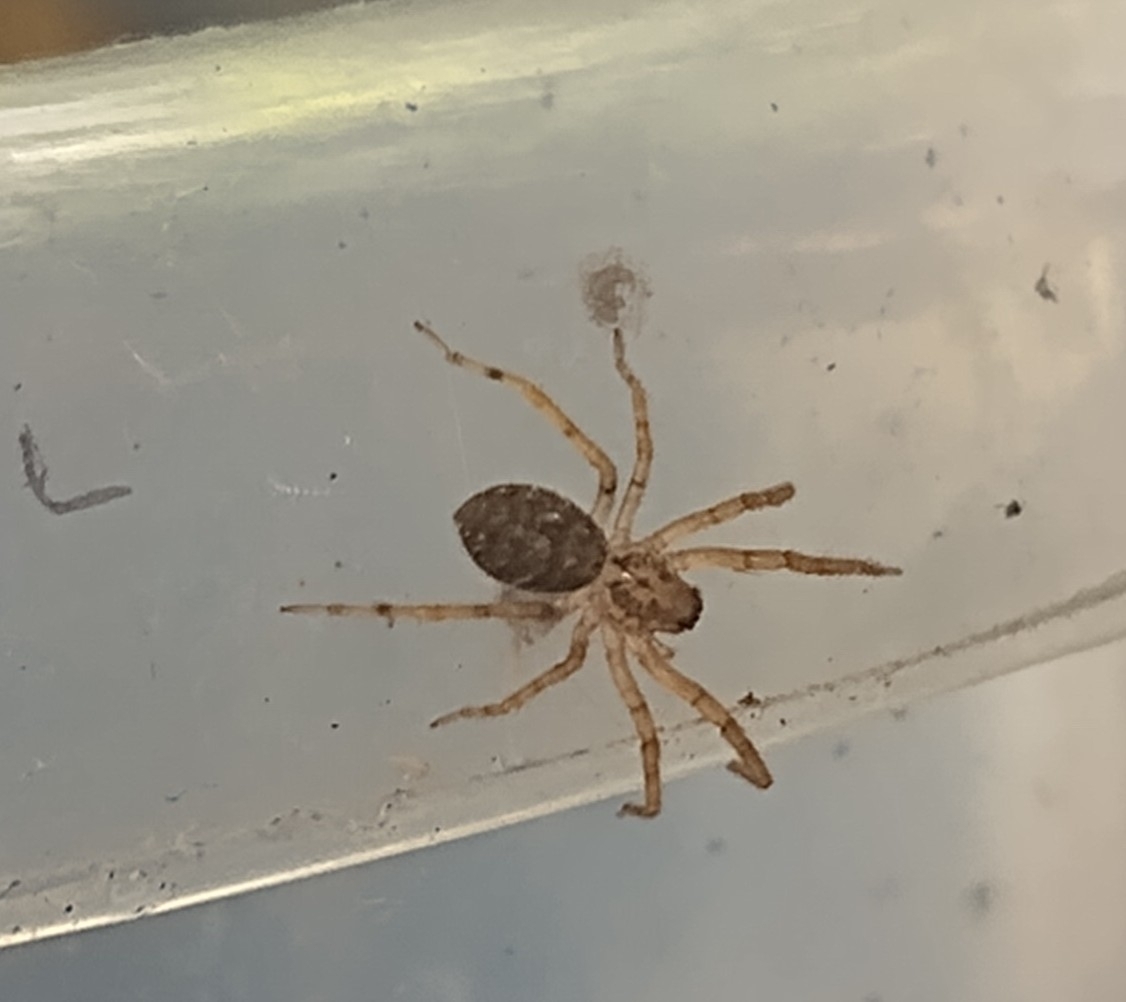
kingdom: Animalia
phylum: Arthropoda
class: Arachnida
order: Araneae
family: Zoropsidae
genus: Zoropsis
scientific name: Zoropsis spinimana
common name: Zoropsid spider
